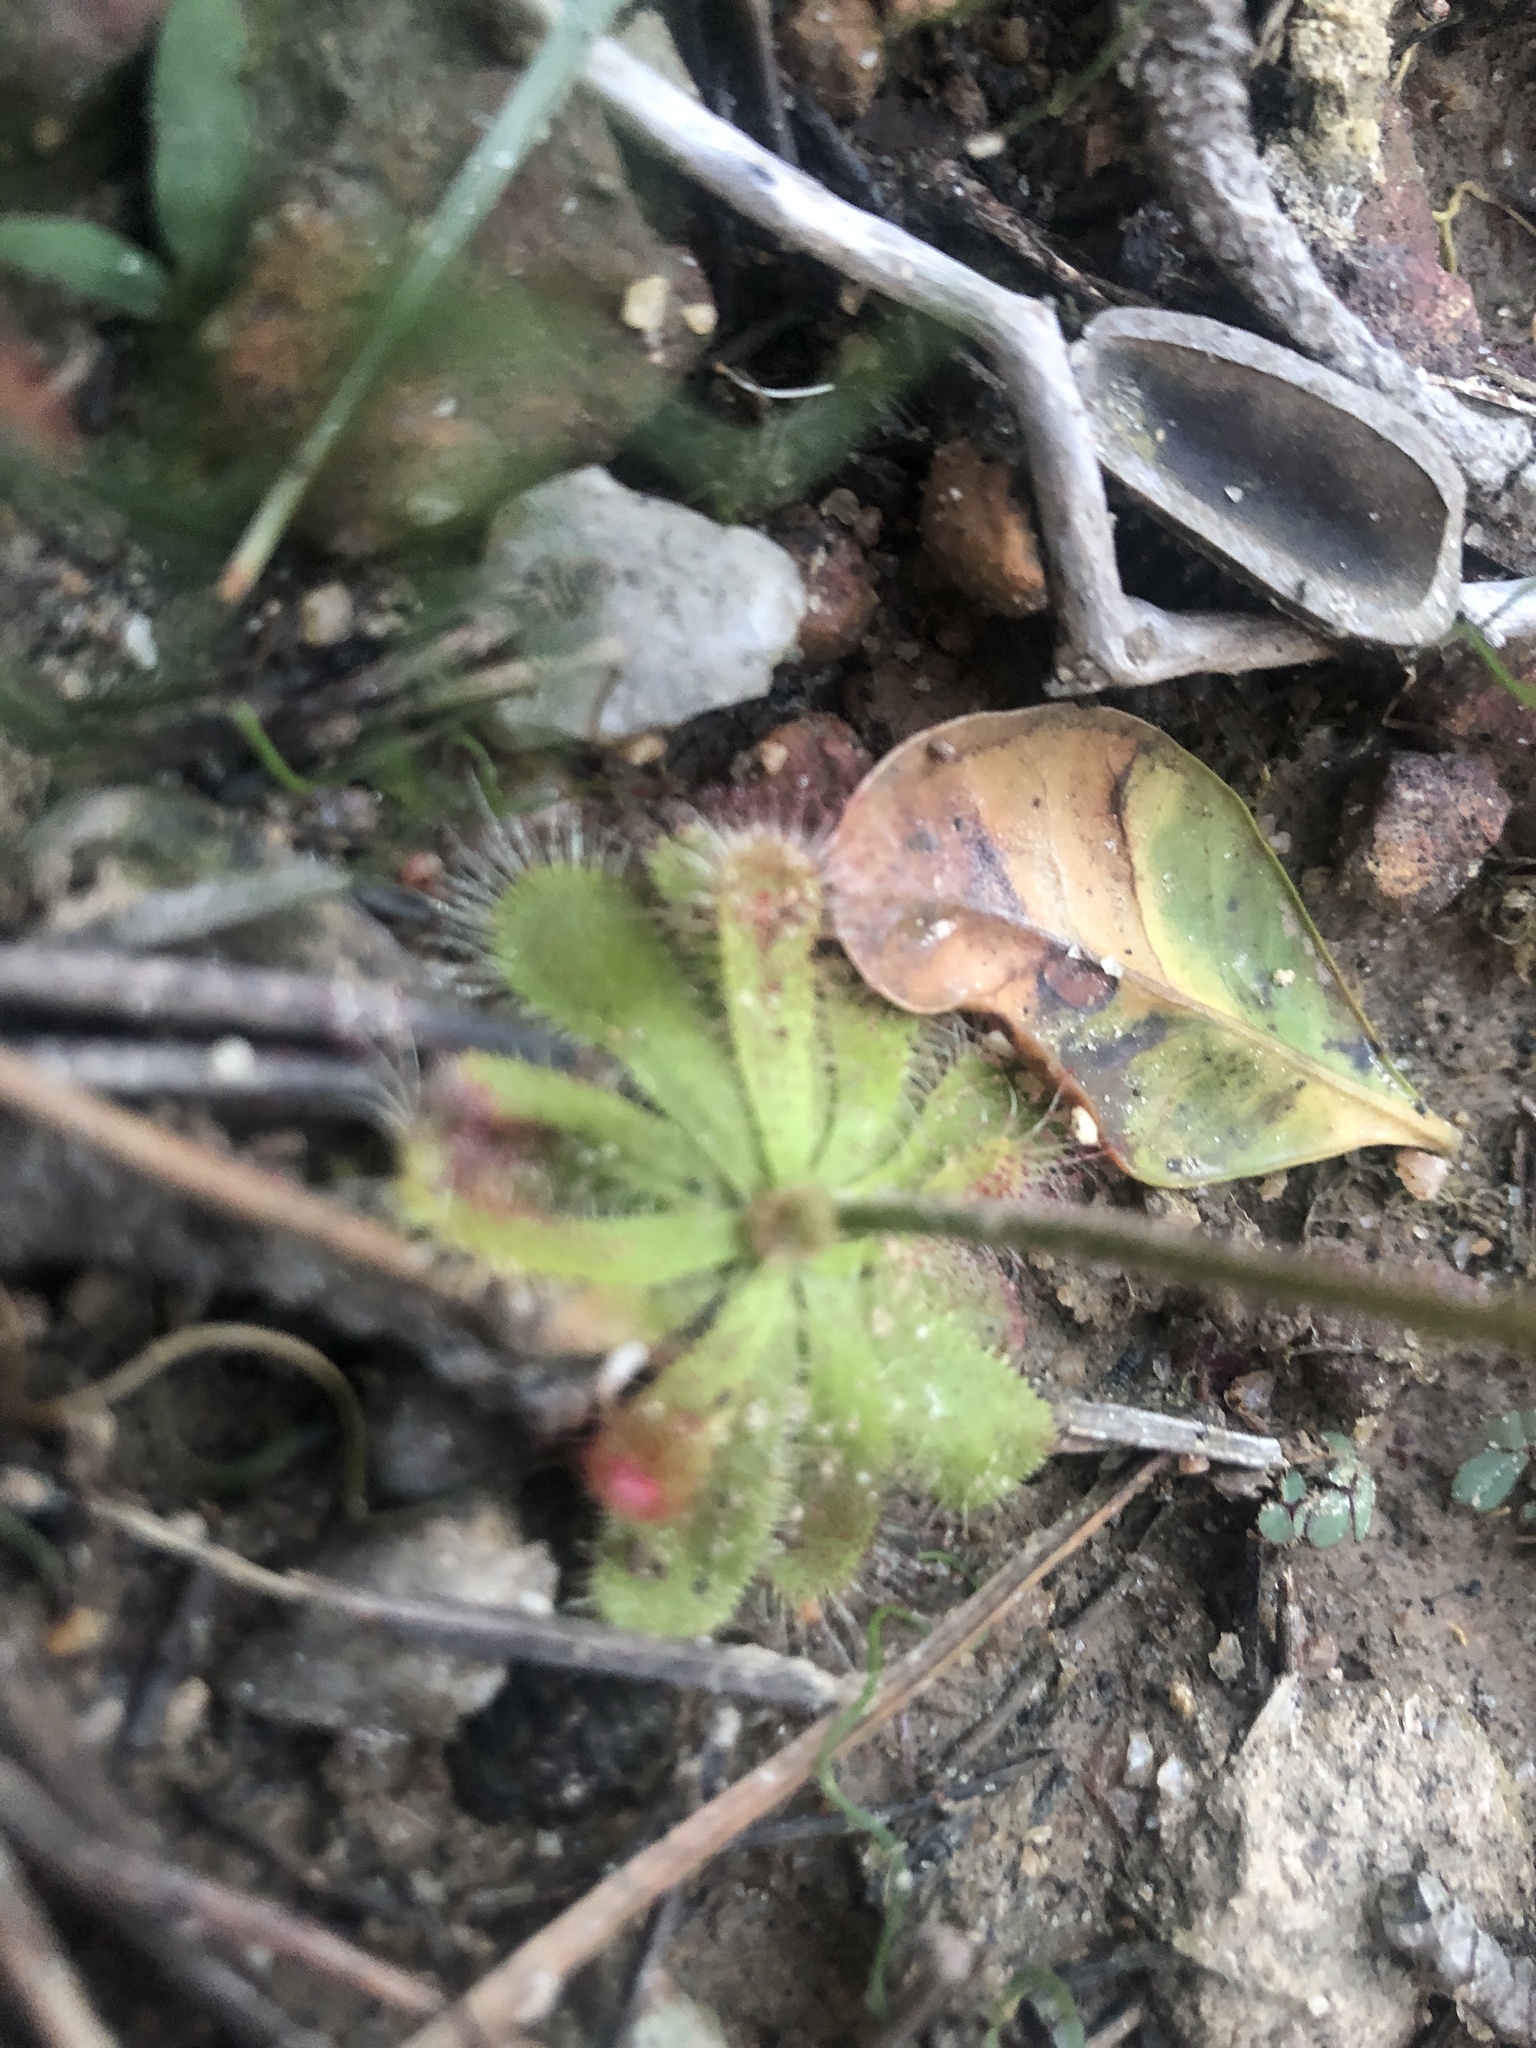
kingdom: Plantae
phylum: Tracheophyta
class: Magnoliopsida
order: Caryophyllales
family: Droseraceae
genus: Drosera
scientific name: Drosera pauciflora
